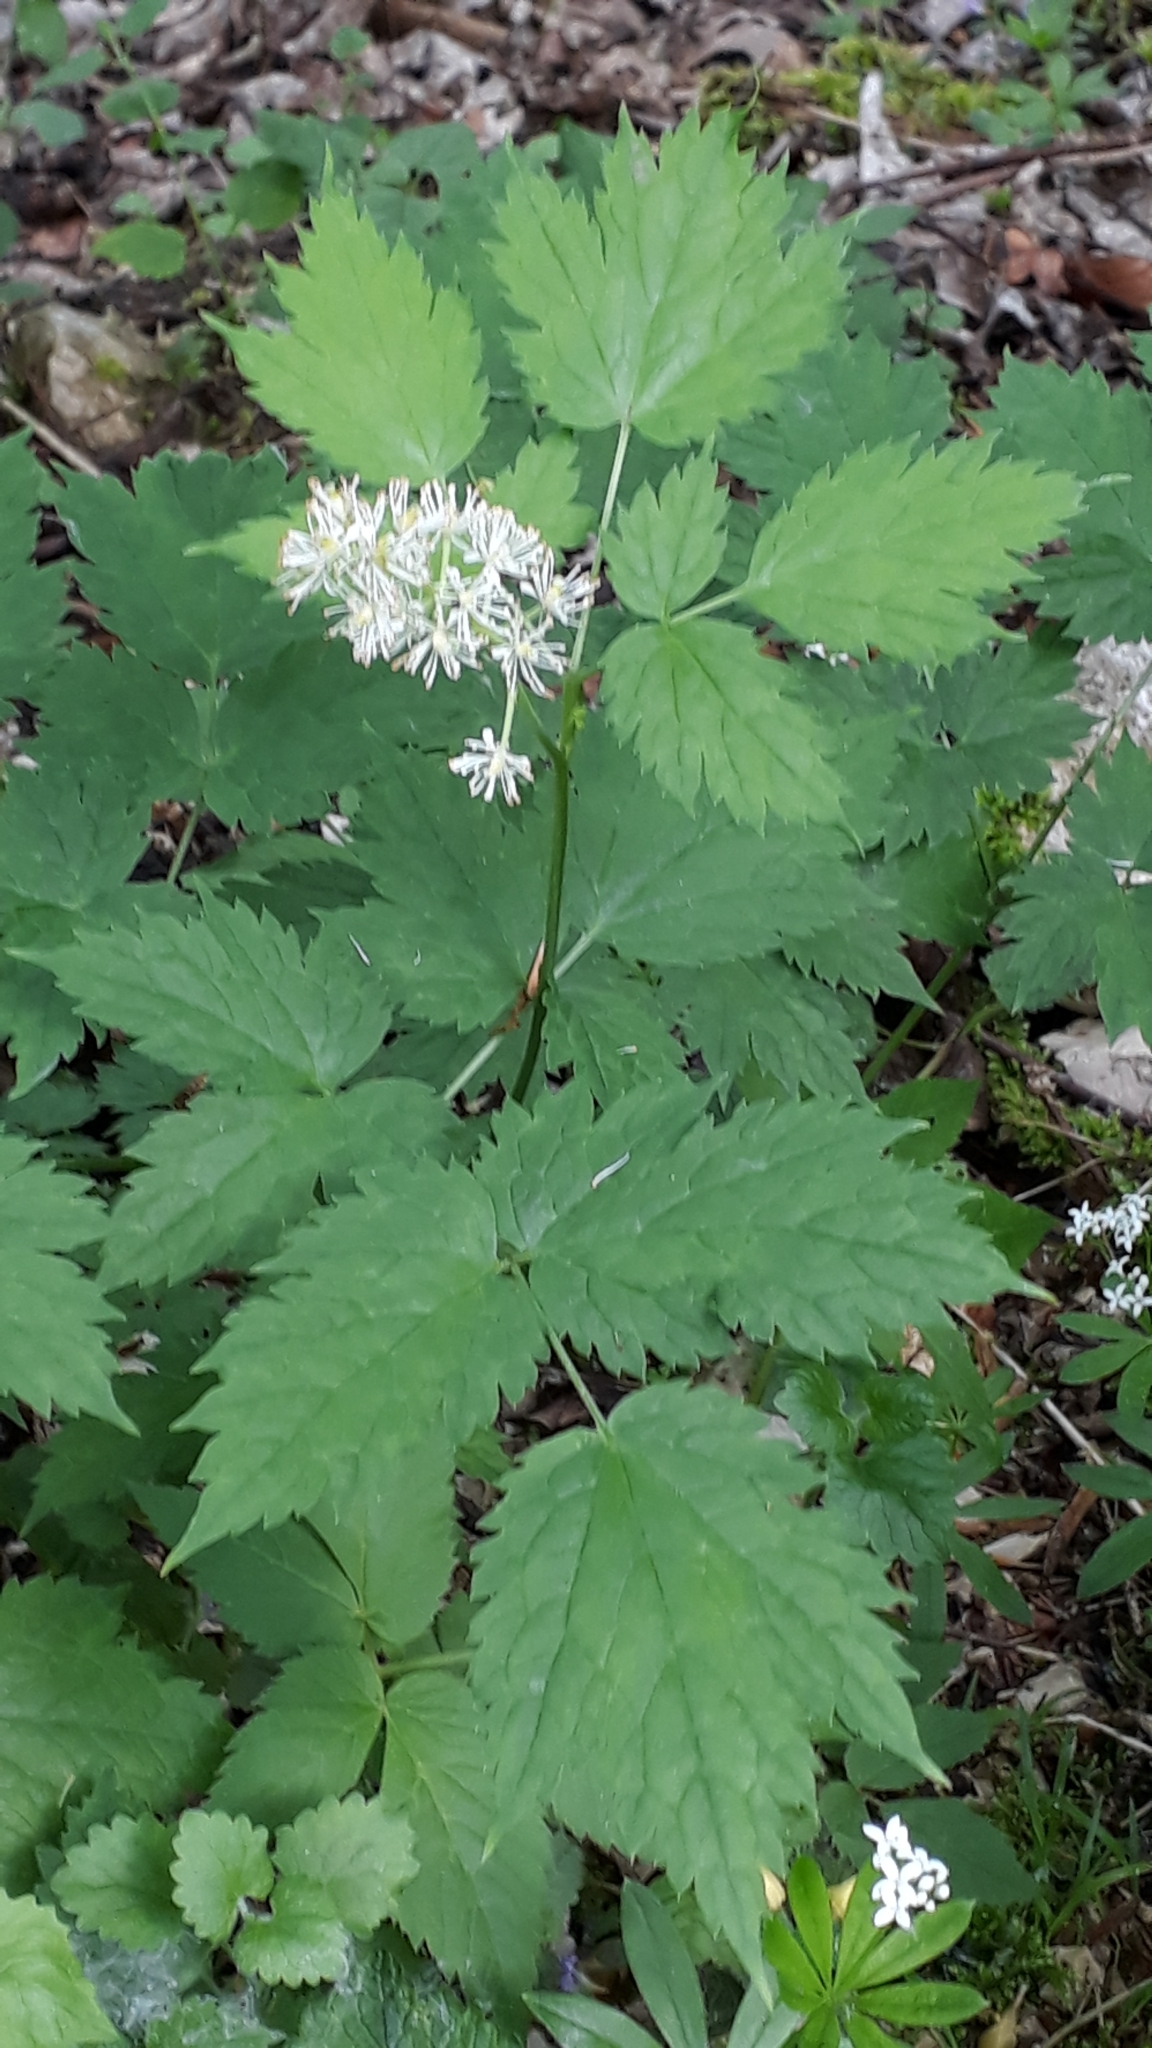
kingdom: Plantae
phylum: Tracheophyta
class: Magnoliopsida
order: Ranunculales
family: Ranunculaceae
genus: Actaea
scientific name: Actaea spicata
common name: Baneberry
